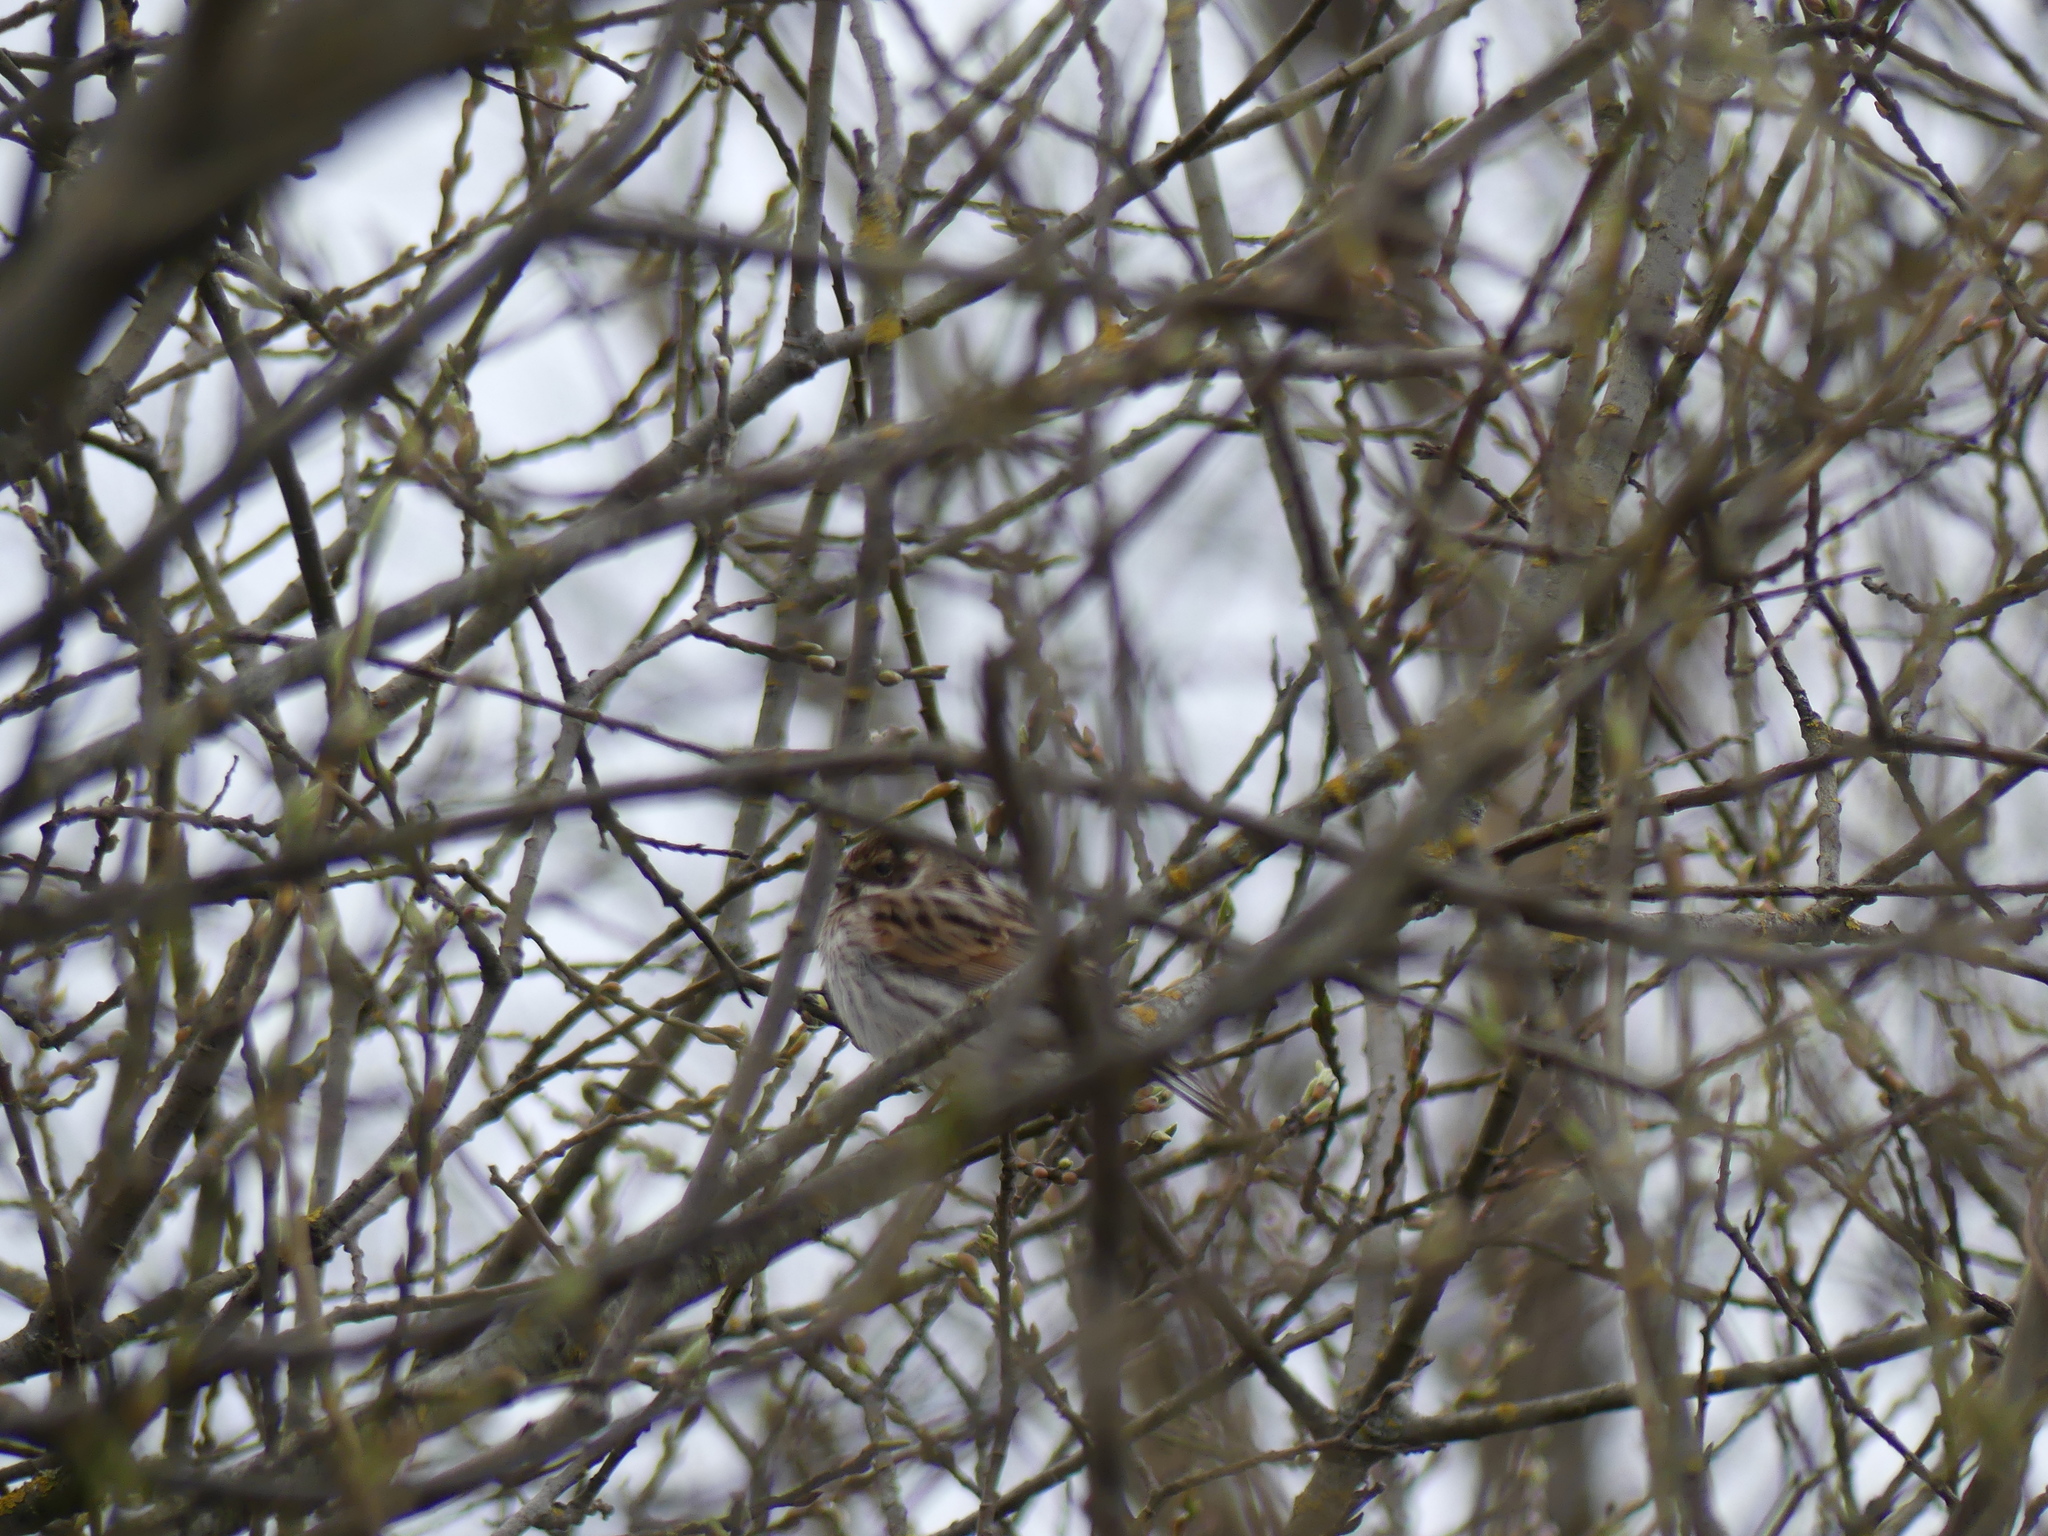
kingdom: Animalia
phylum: Chordata
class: Aves
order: Passeriformes
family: Emberizidae
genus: Emberiza
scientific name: Emberiza schoeniclus
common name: Reed bunting
